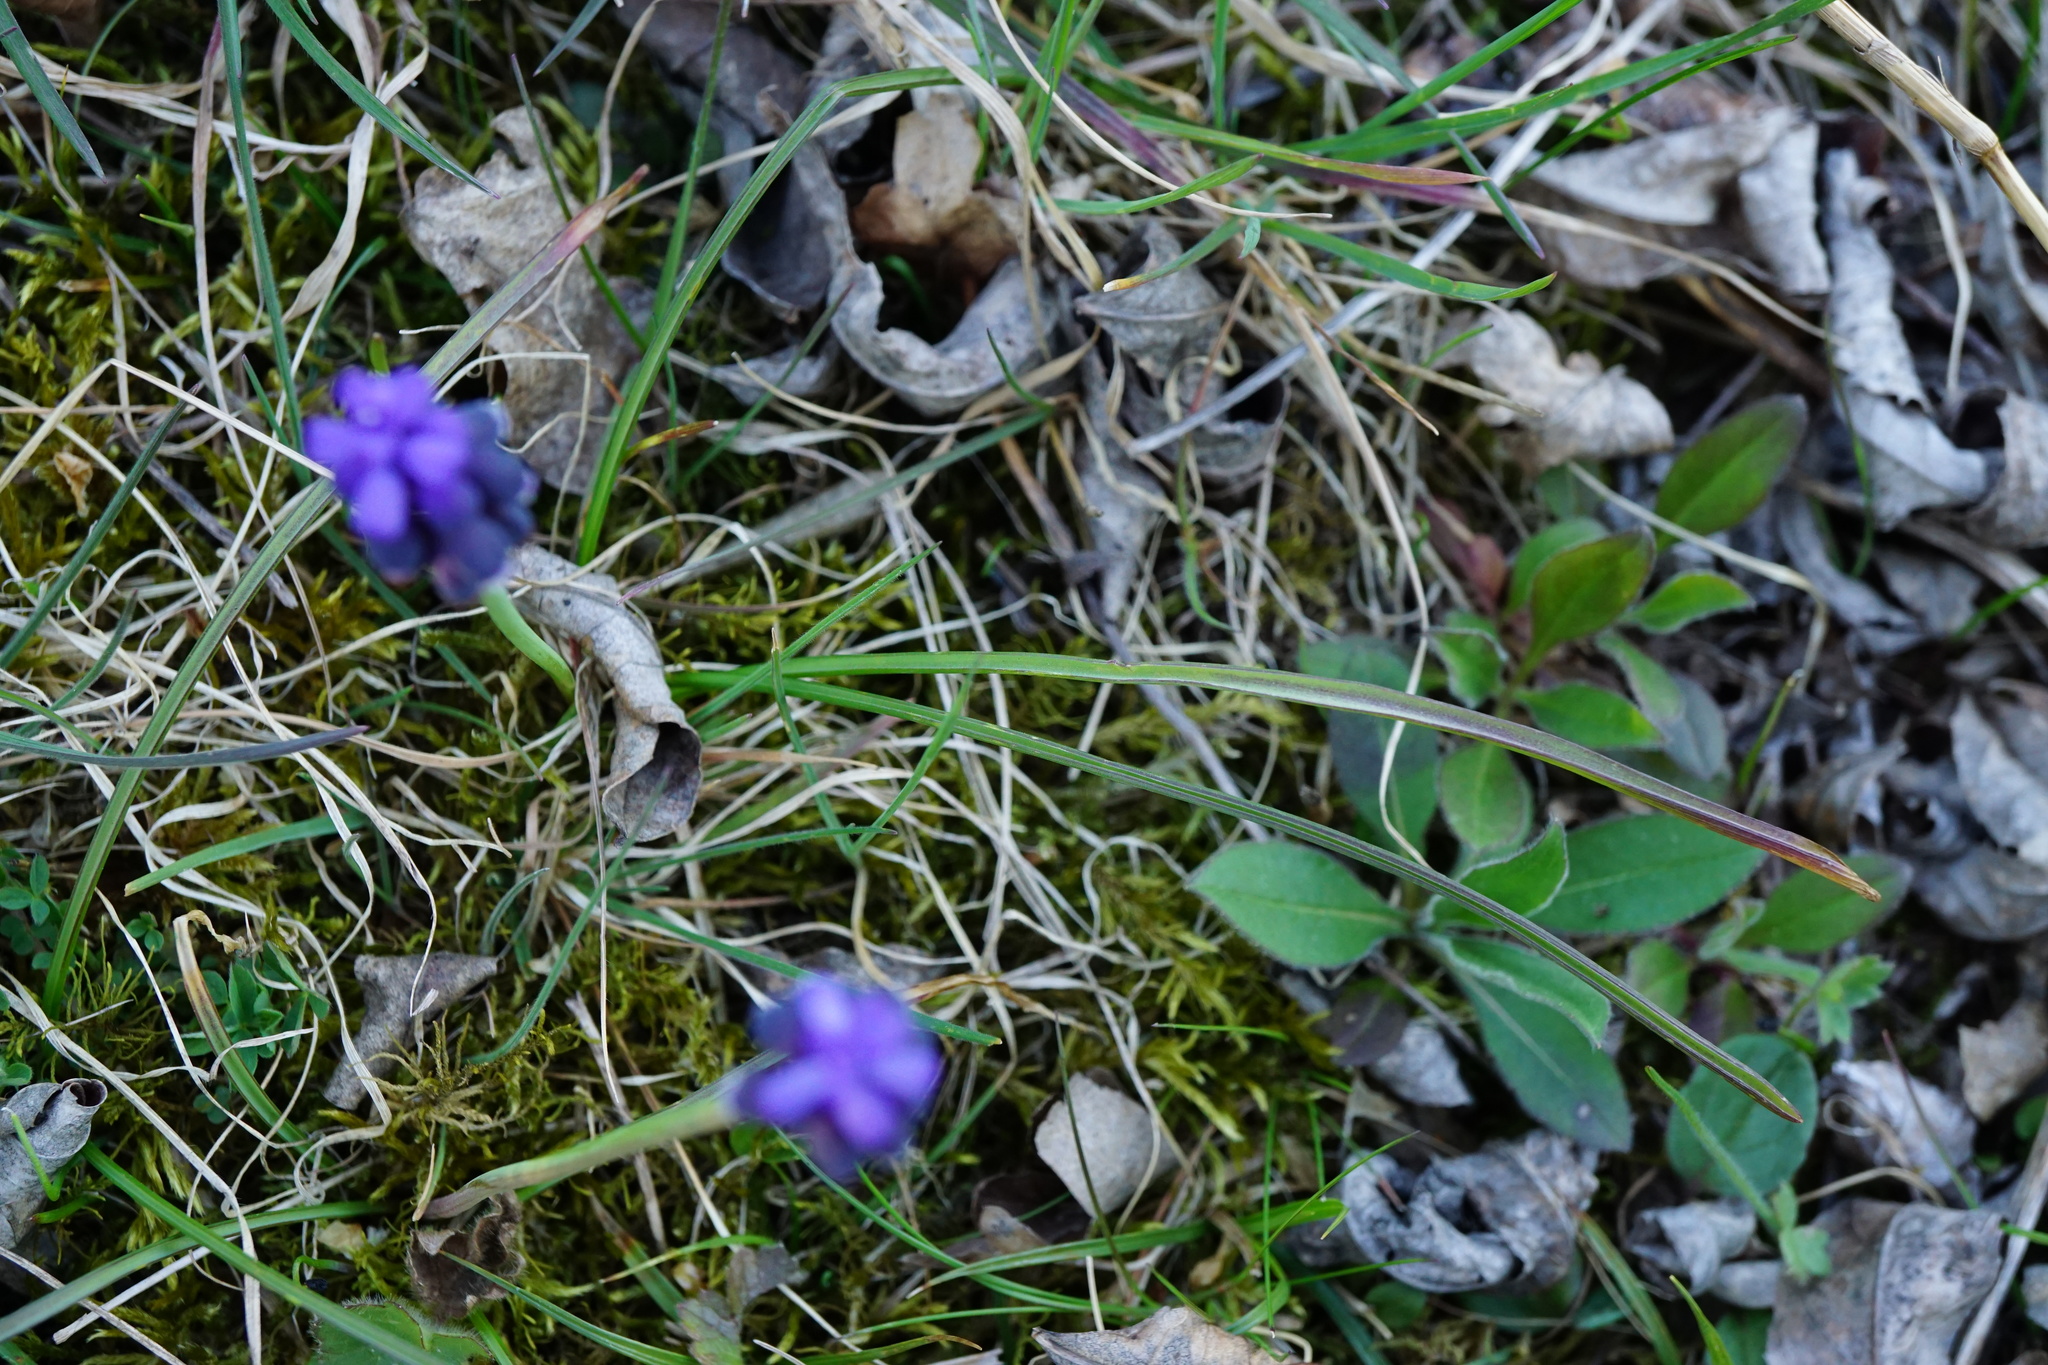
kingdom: Plantae
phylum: Tracheophyta
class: Liliopsida
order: Asparagales
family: Asparagaceae
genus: Muscari
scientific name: Muscari neglectum
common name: Grape-hyacinth
